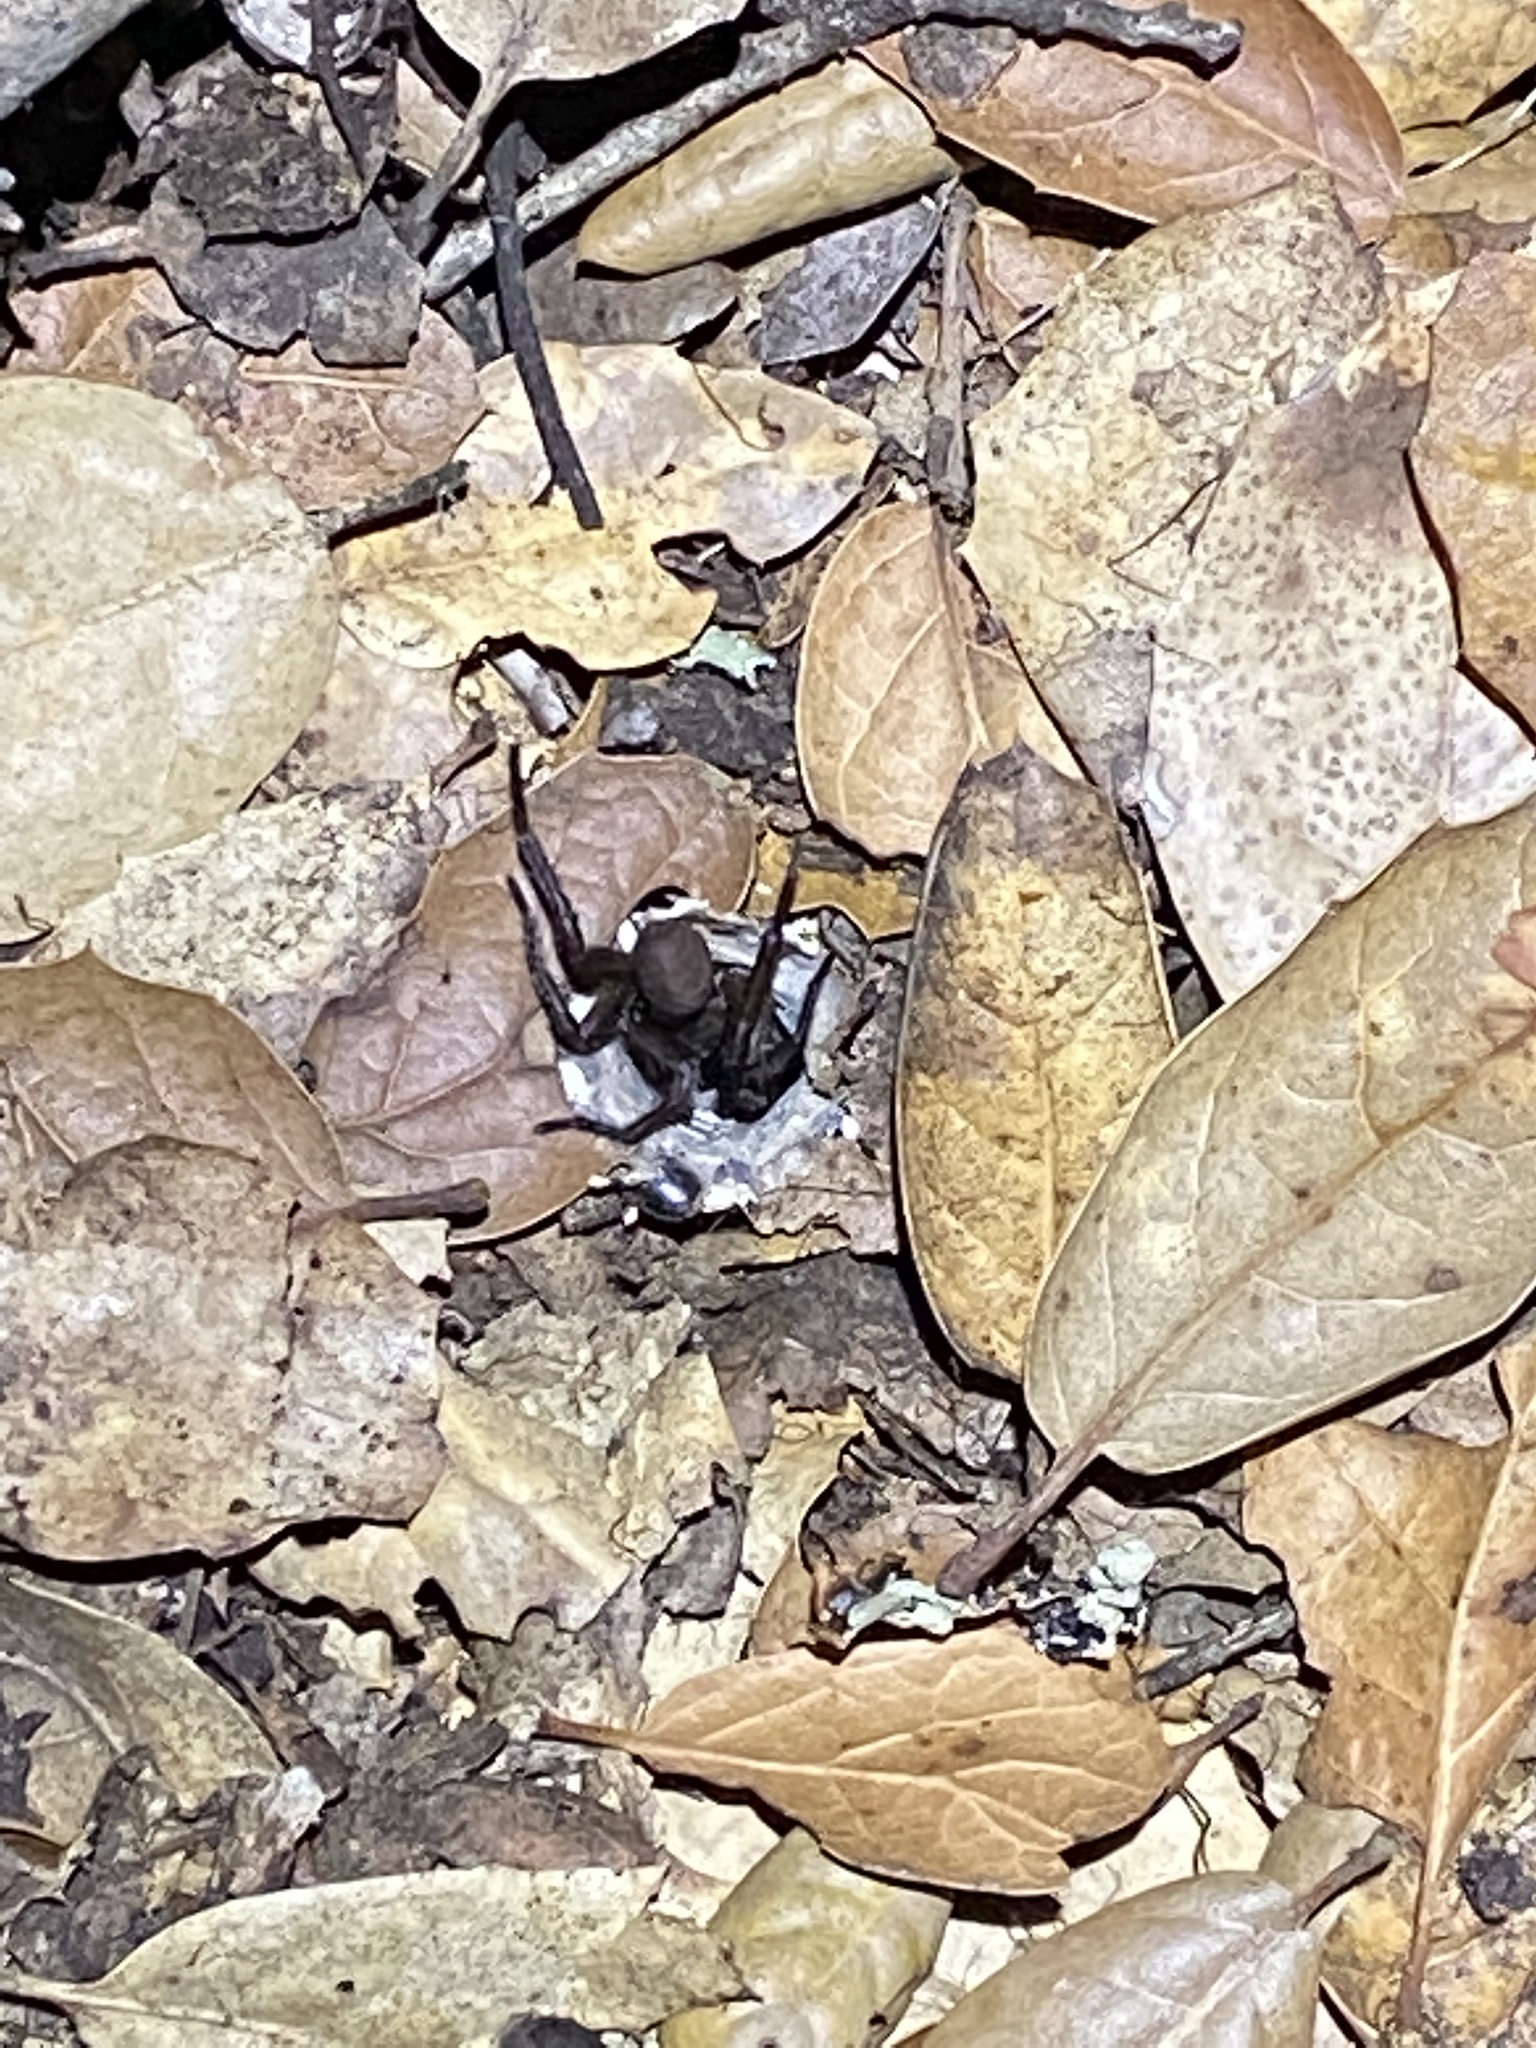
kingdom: Animalia
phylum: Arthropoda
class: Arachnida
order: Araneae
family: Euctenizidae
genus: Promyrmekiaphila
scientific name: Promyrmekiaphila clathrata
